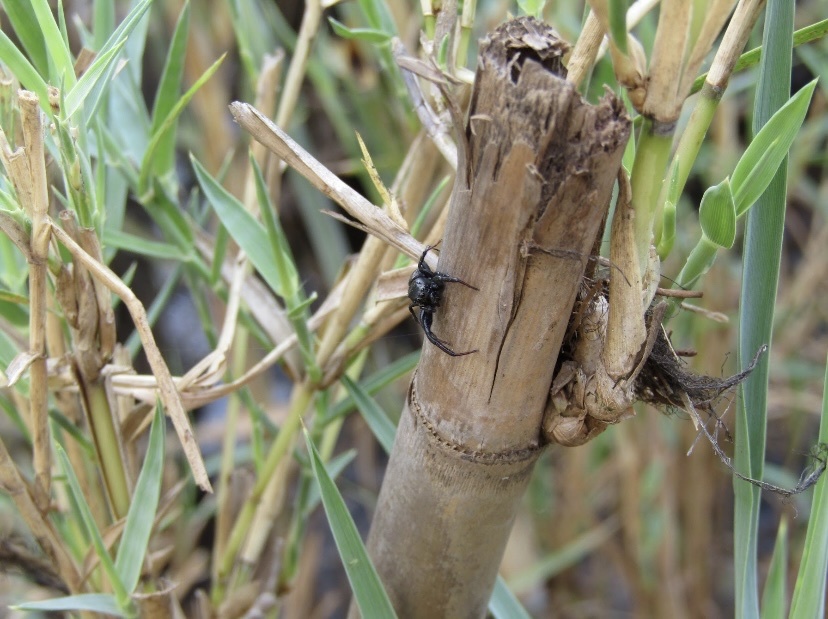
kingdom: Animalia
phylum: Arthropoda
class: Arachnida
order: Araneae
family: Salticidae
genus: Heliophanus
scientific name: Heliophanus
